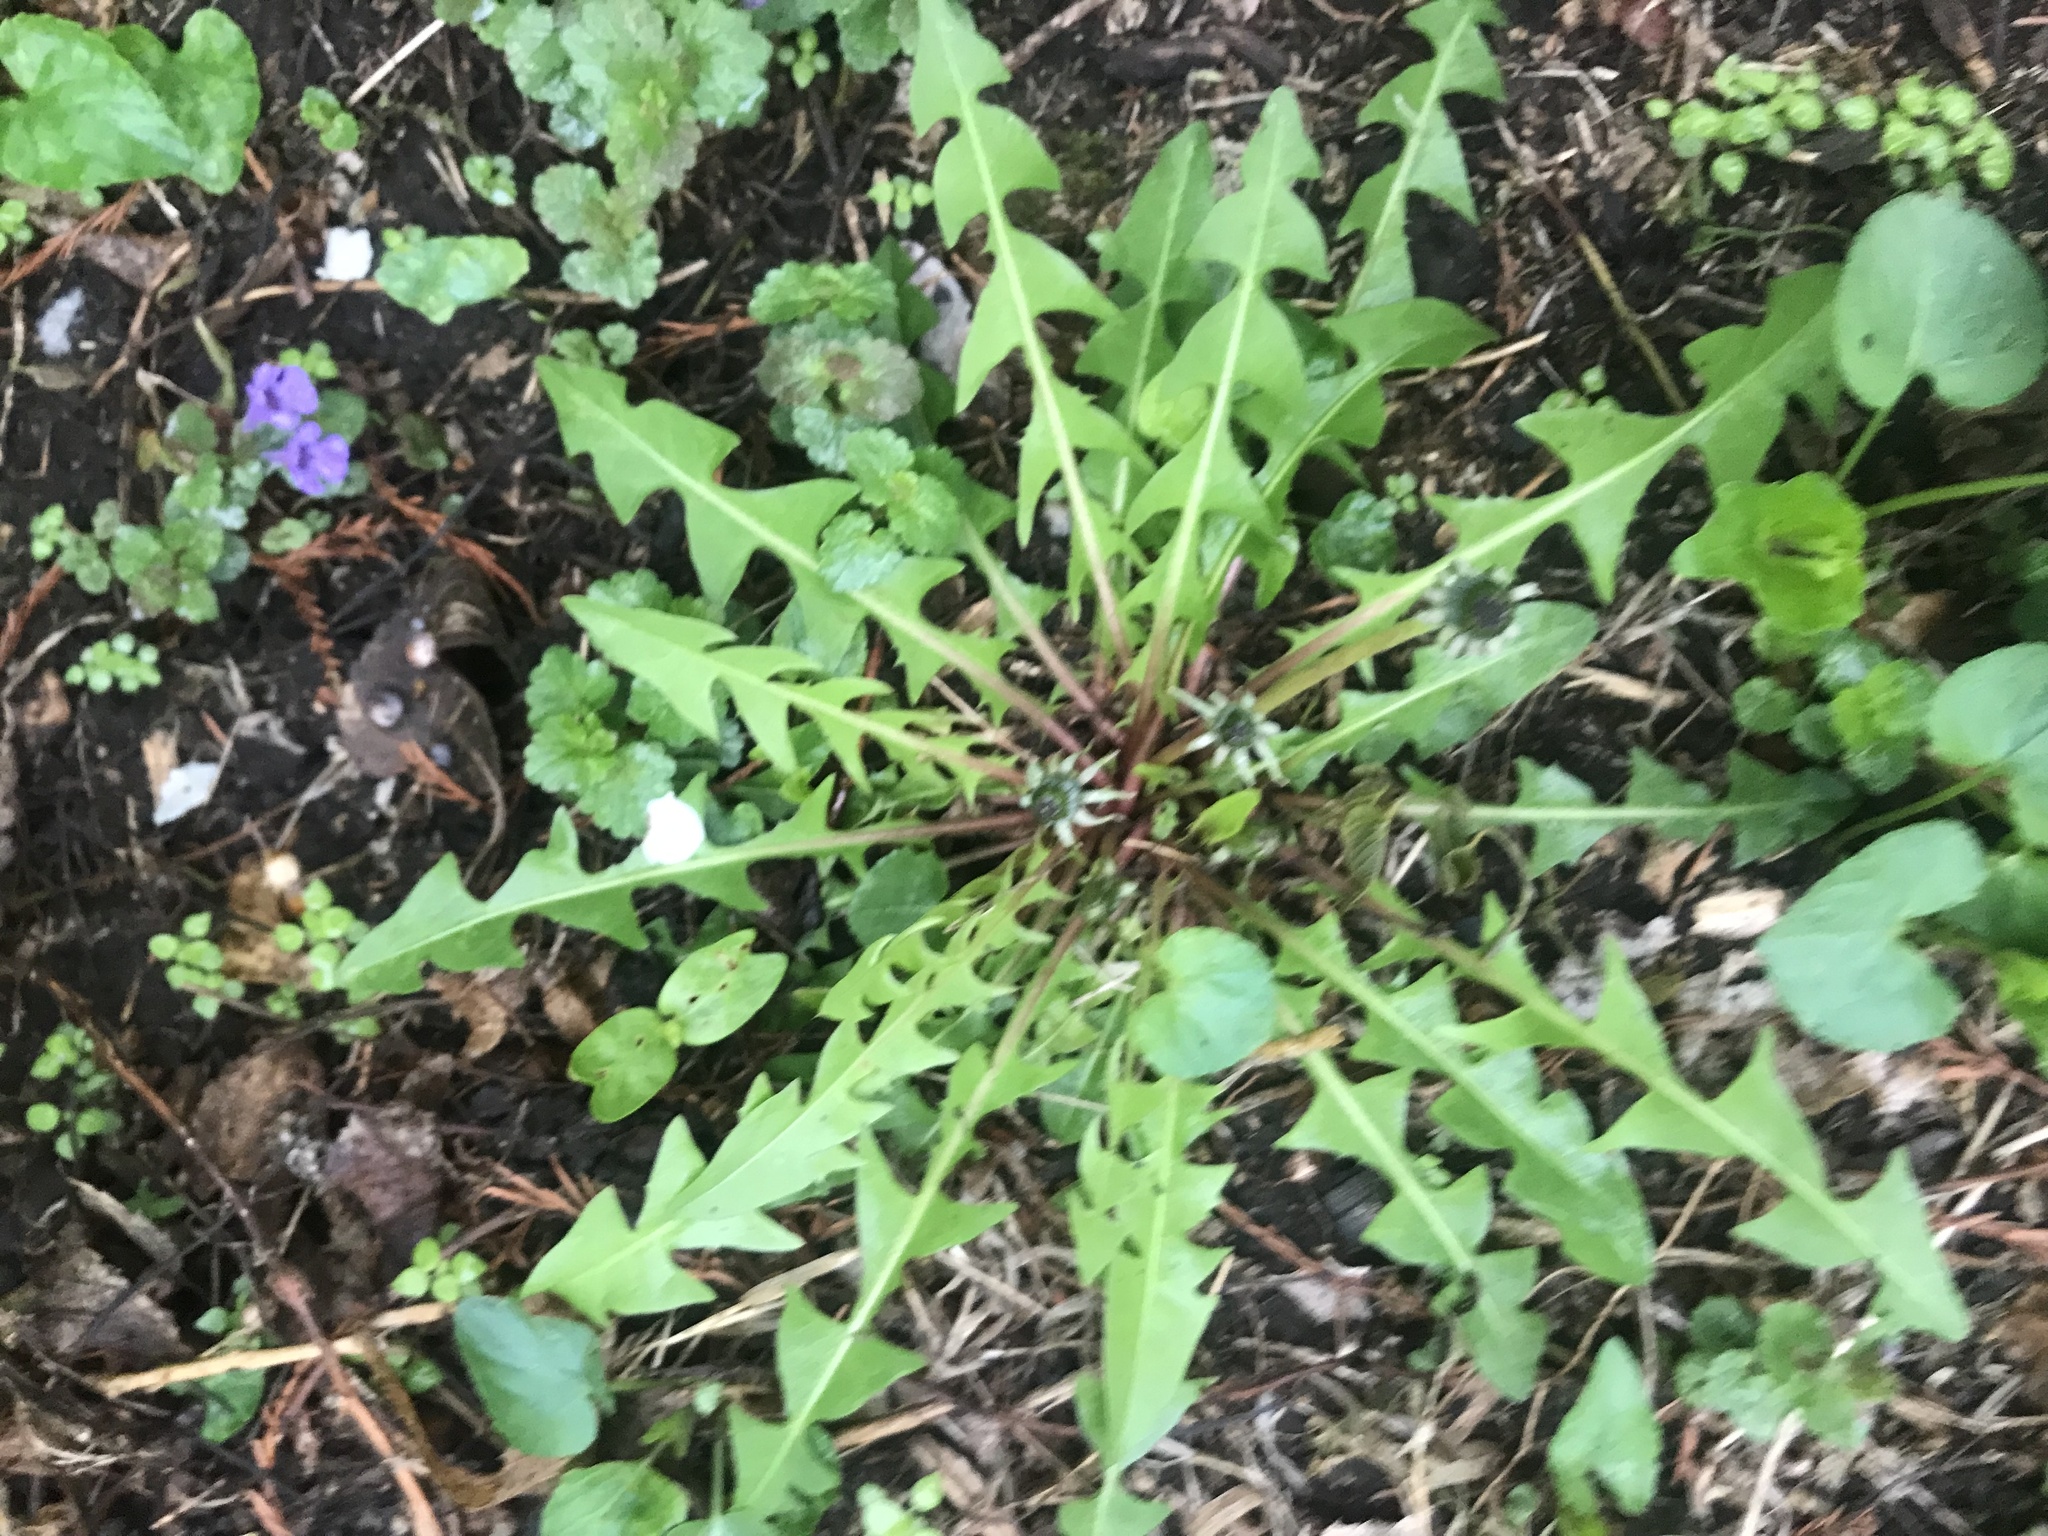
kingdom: Plantae
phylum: Tracheophyta
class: Magnoliopsida
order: Asterales
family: Asteraceae
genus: Taraxacum
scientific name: Taraxacum
